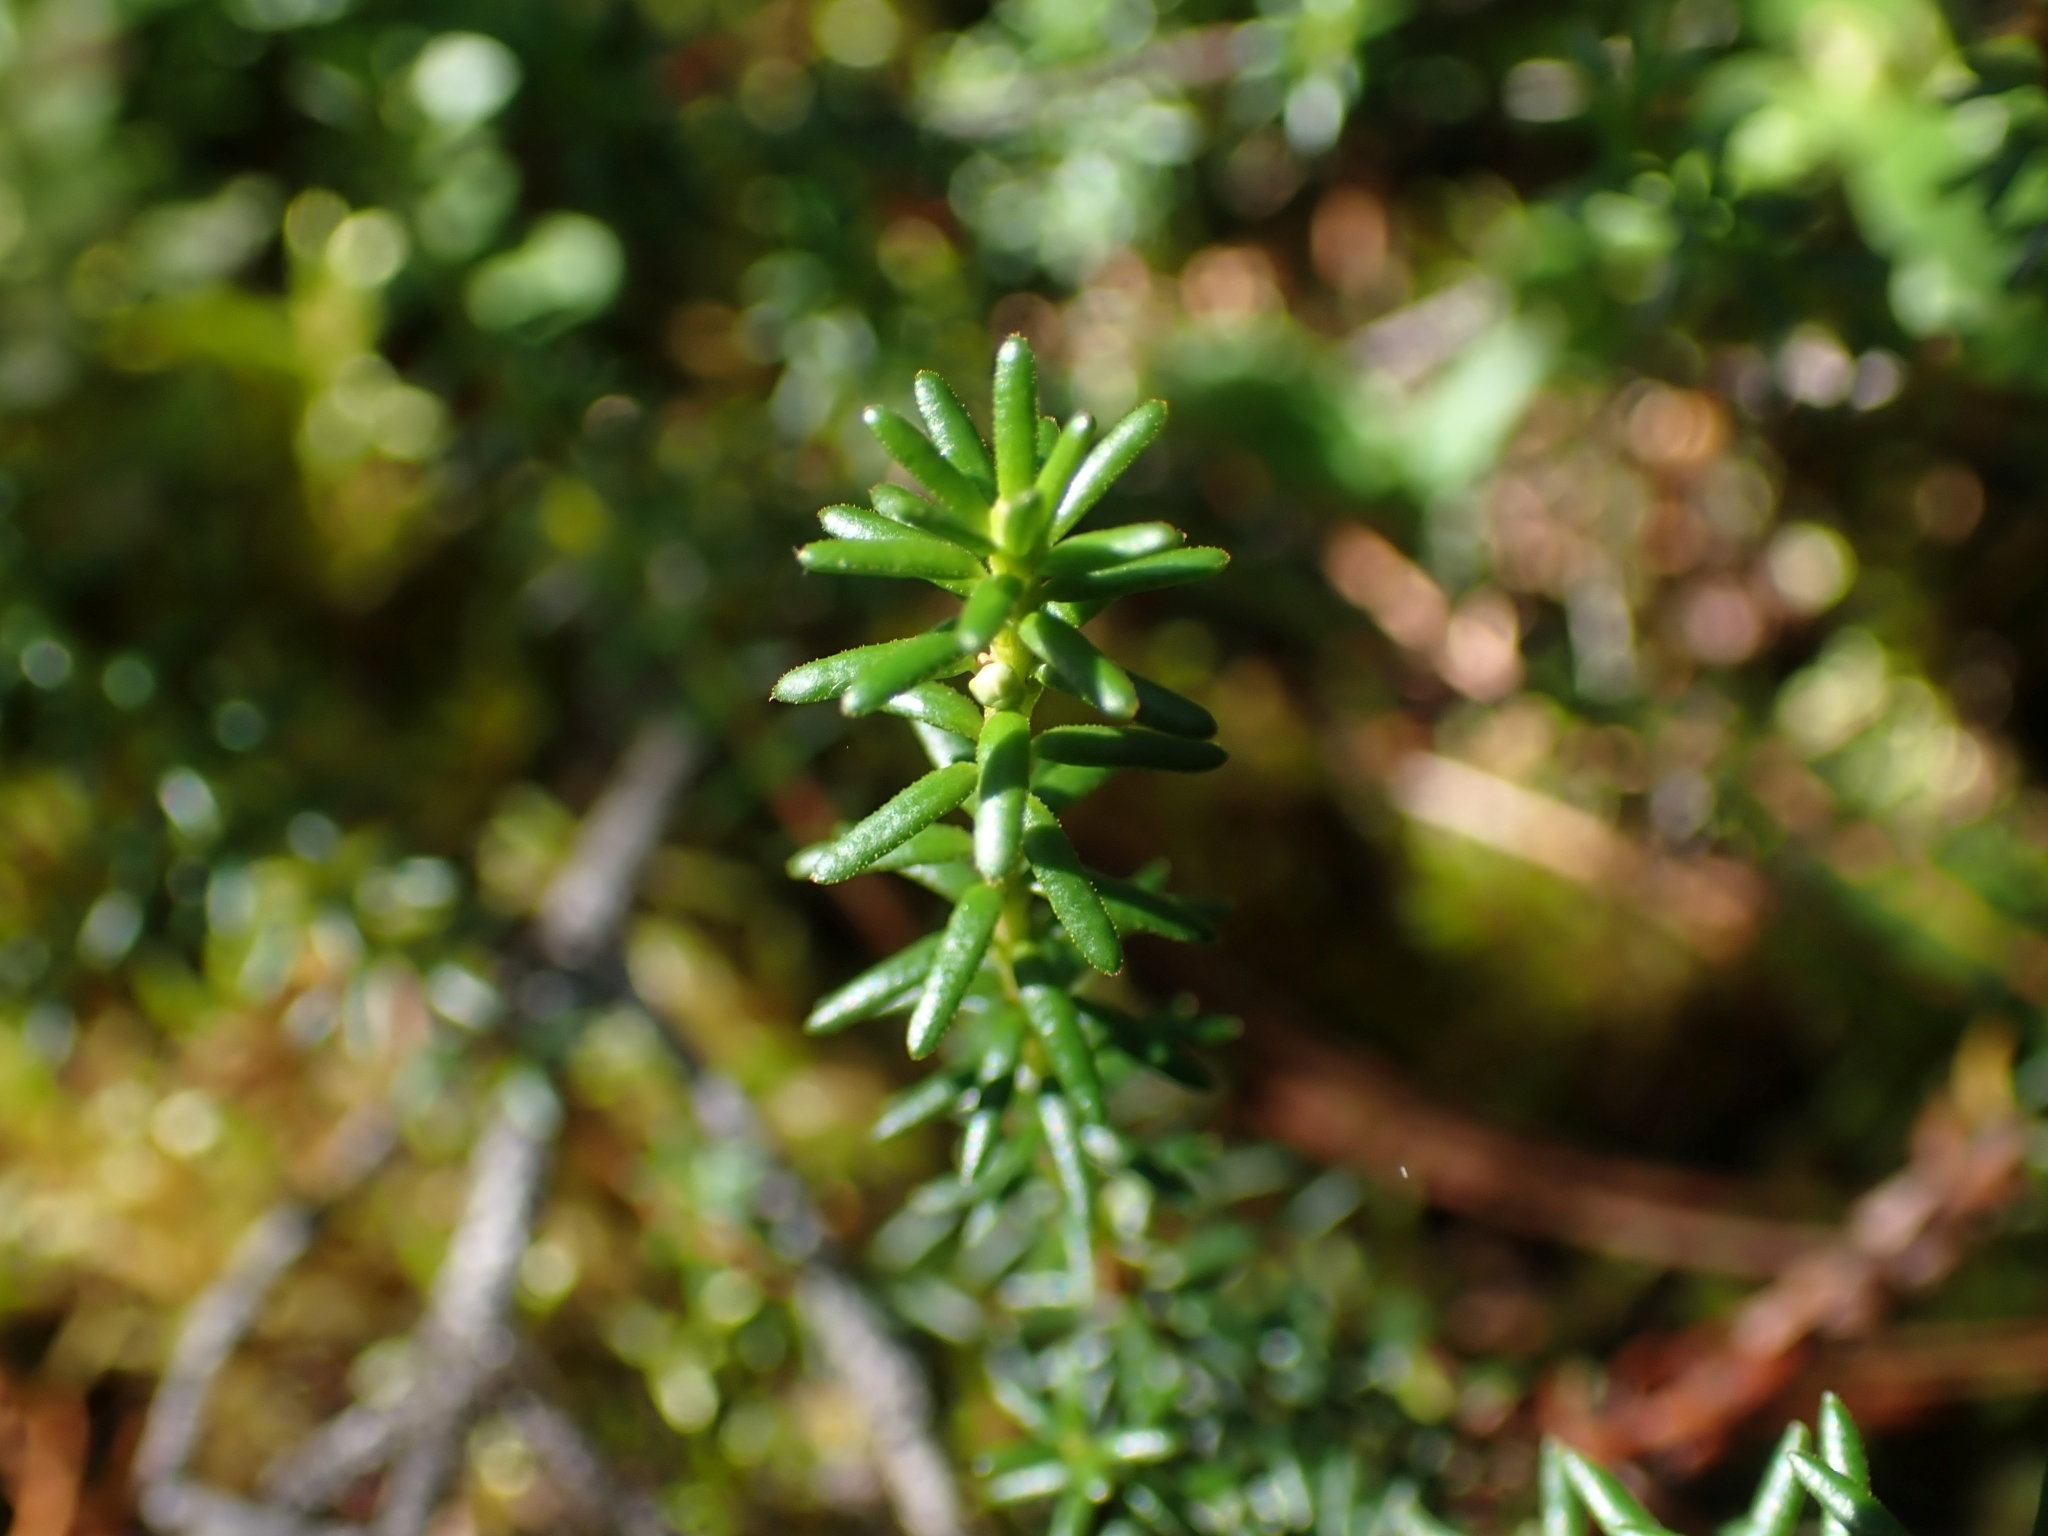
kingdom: Plantae
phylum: Tracheophyta
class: Magnoliopsida
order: Ericales
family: Ericaceae
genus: Empetrum
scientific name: Empetrum nigrum
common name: Black crowberry
